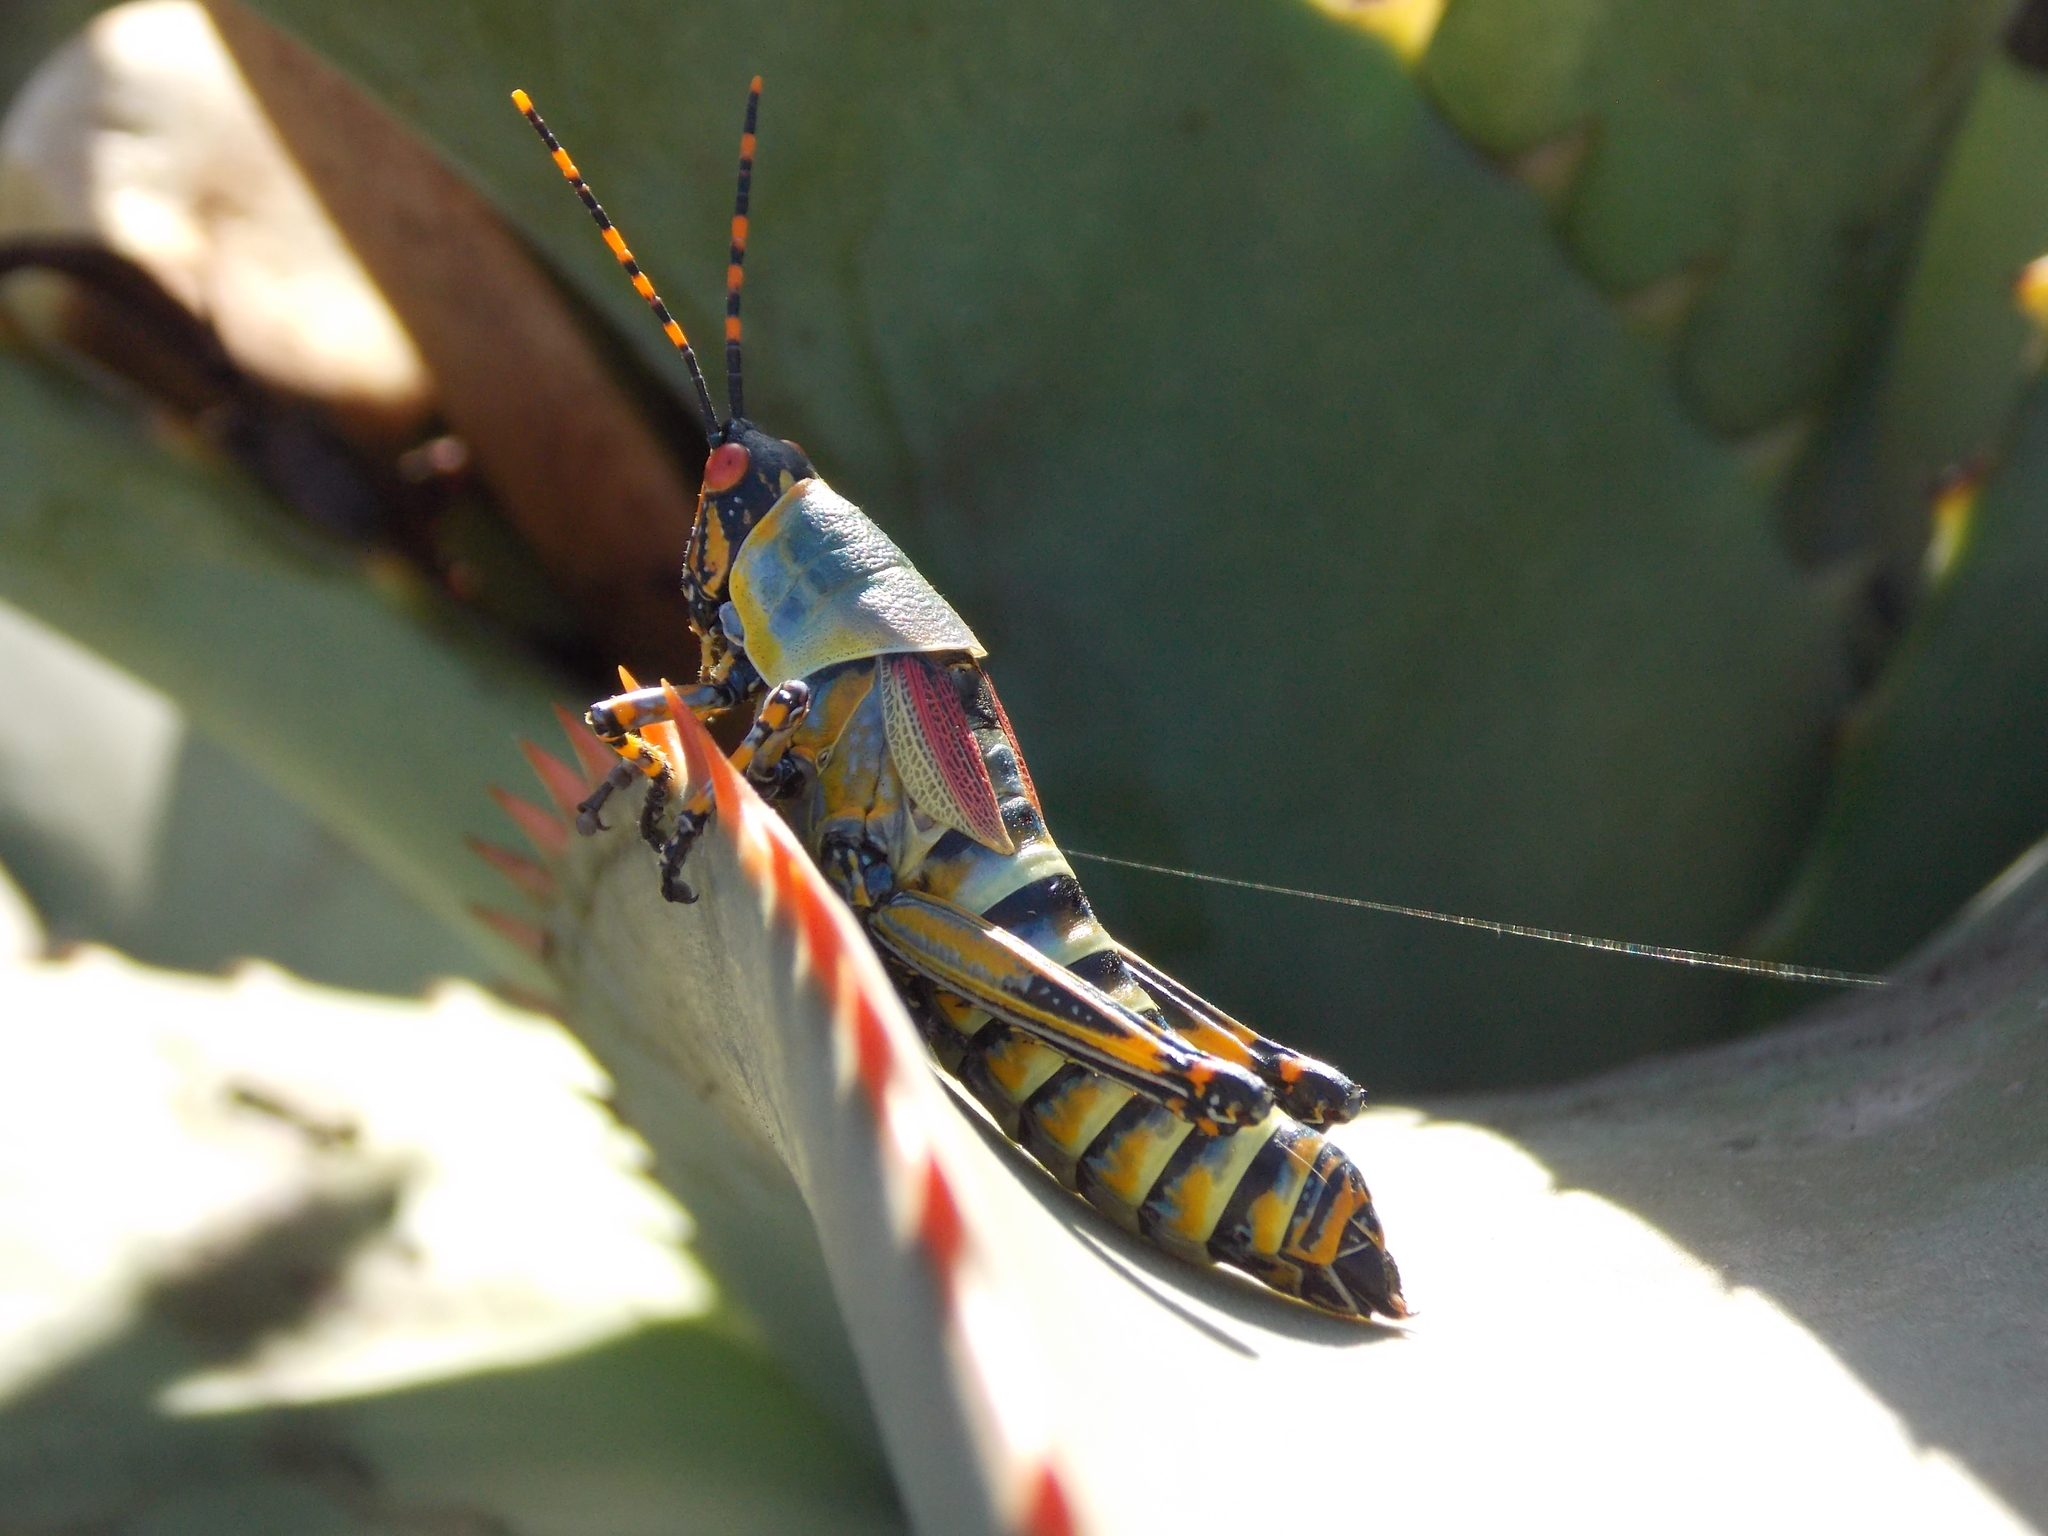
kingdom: Animalia
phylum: Arthropoda
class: Insecta
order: Orthoptera
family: Pyrgomorphidae
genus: Zonocerus
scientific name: Zonocerus elegans
